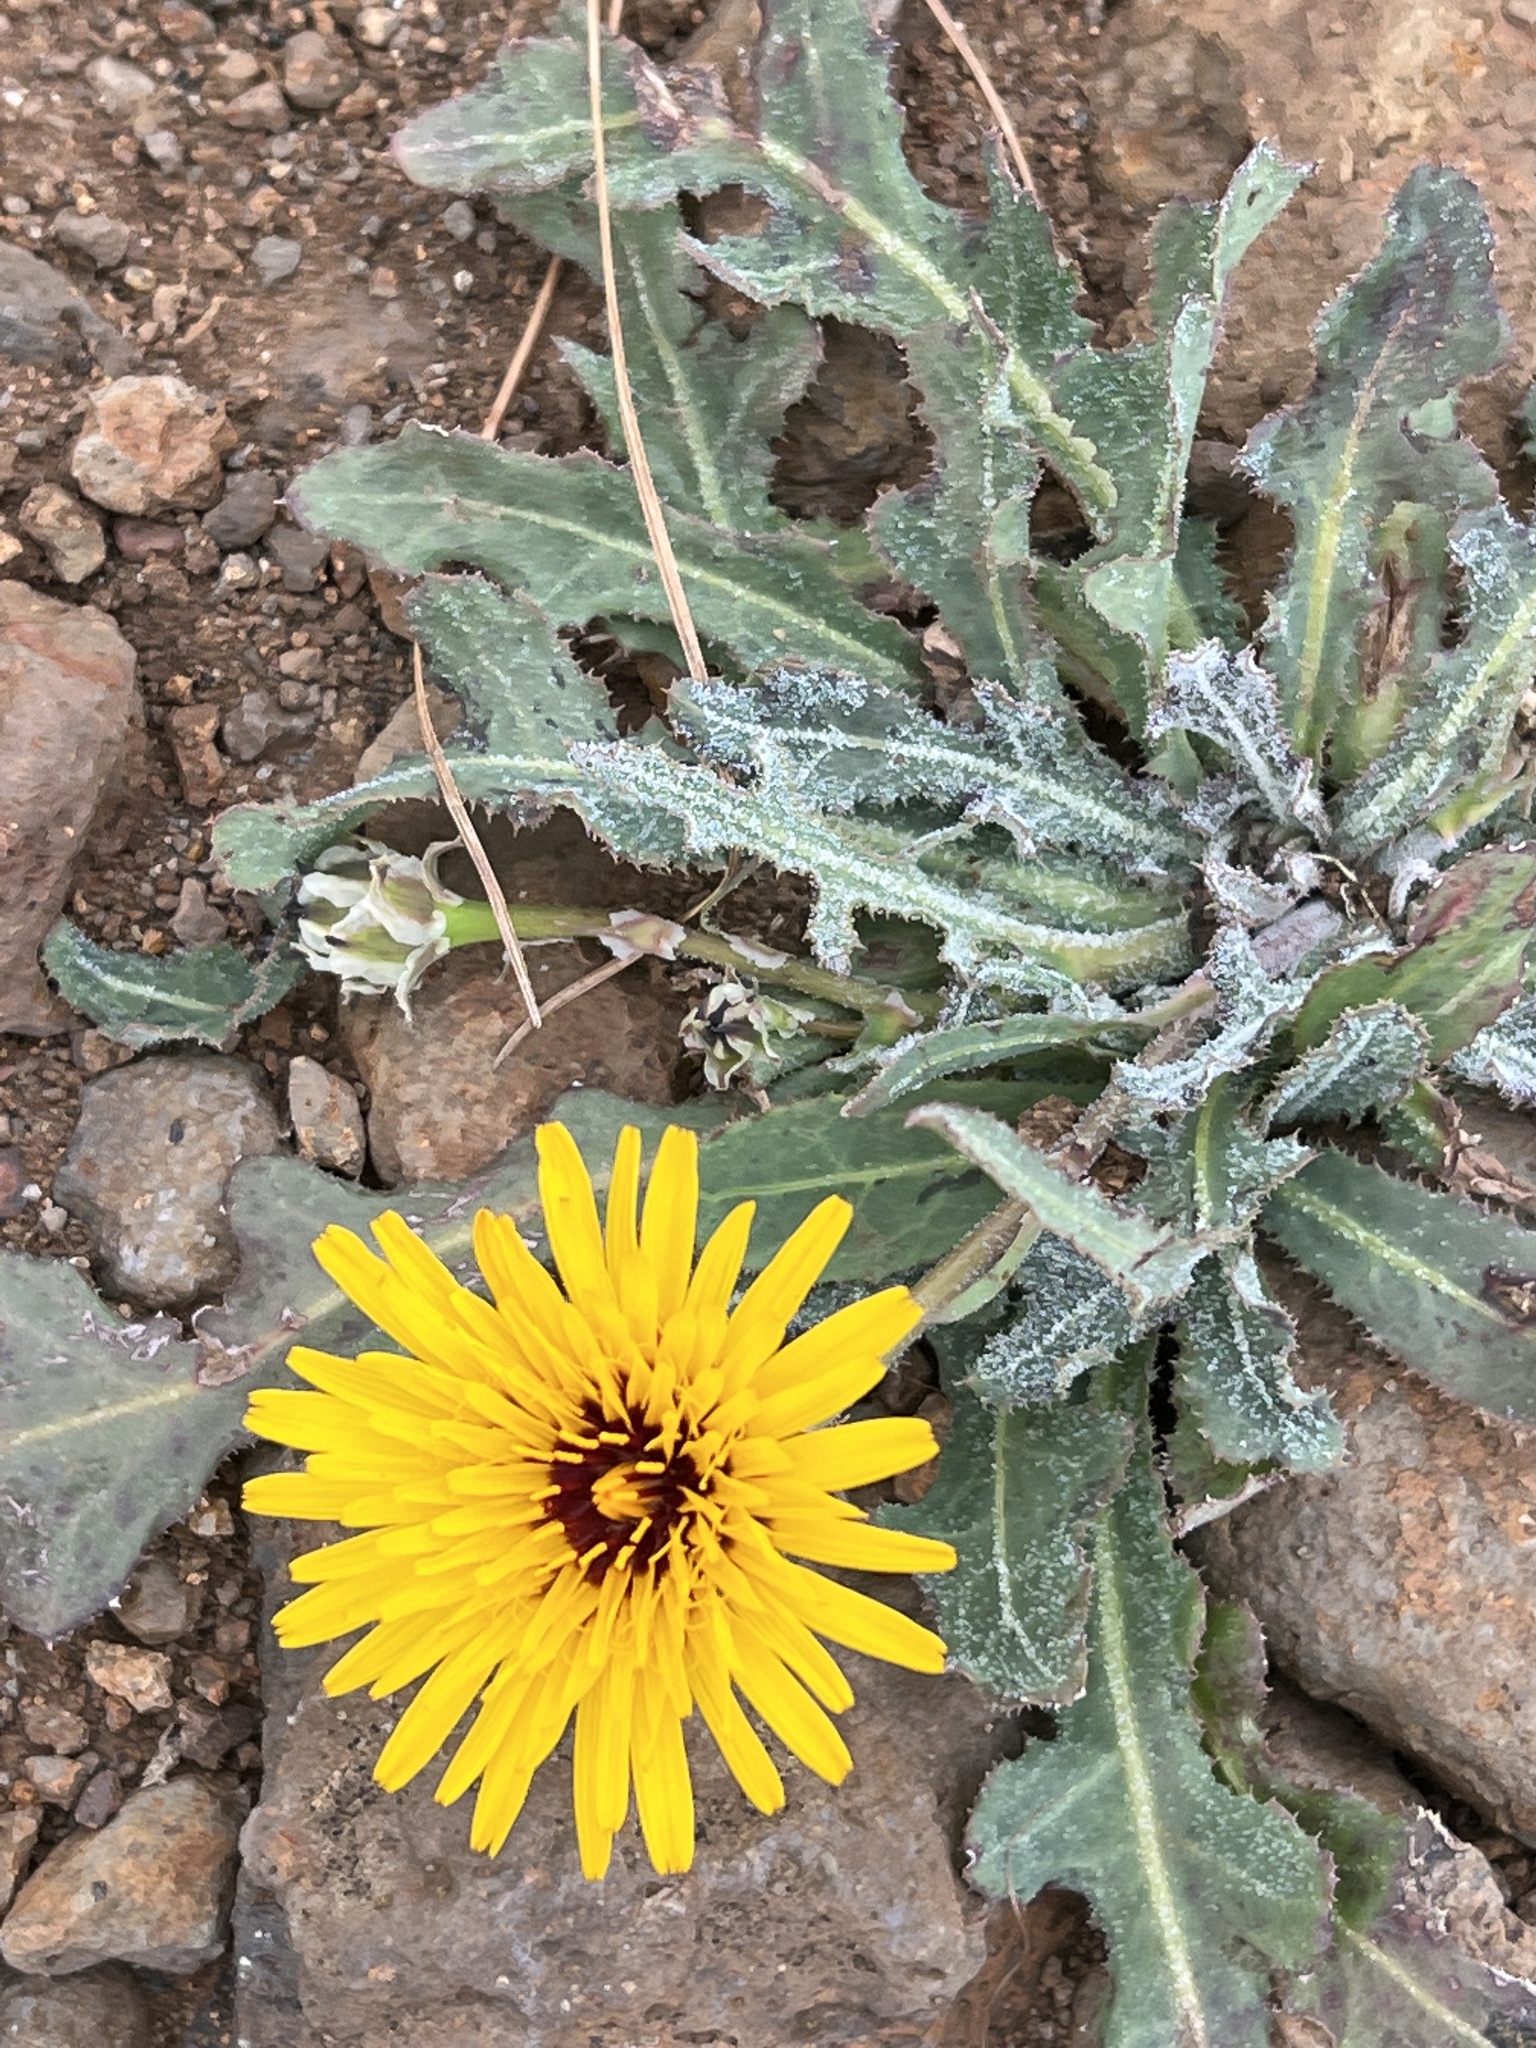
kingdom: Plantae
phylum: Tracheophyta
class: Magnoliopsida
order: Asterales
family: Asteraceae
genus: Reichardia
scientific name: Reichardia tingitana
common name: Reichardia
